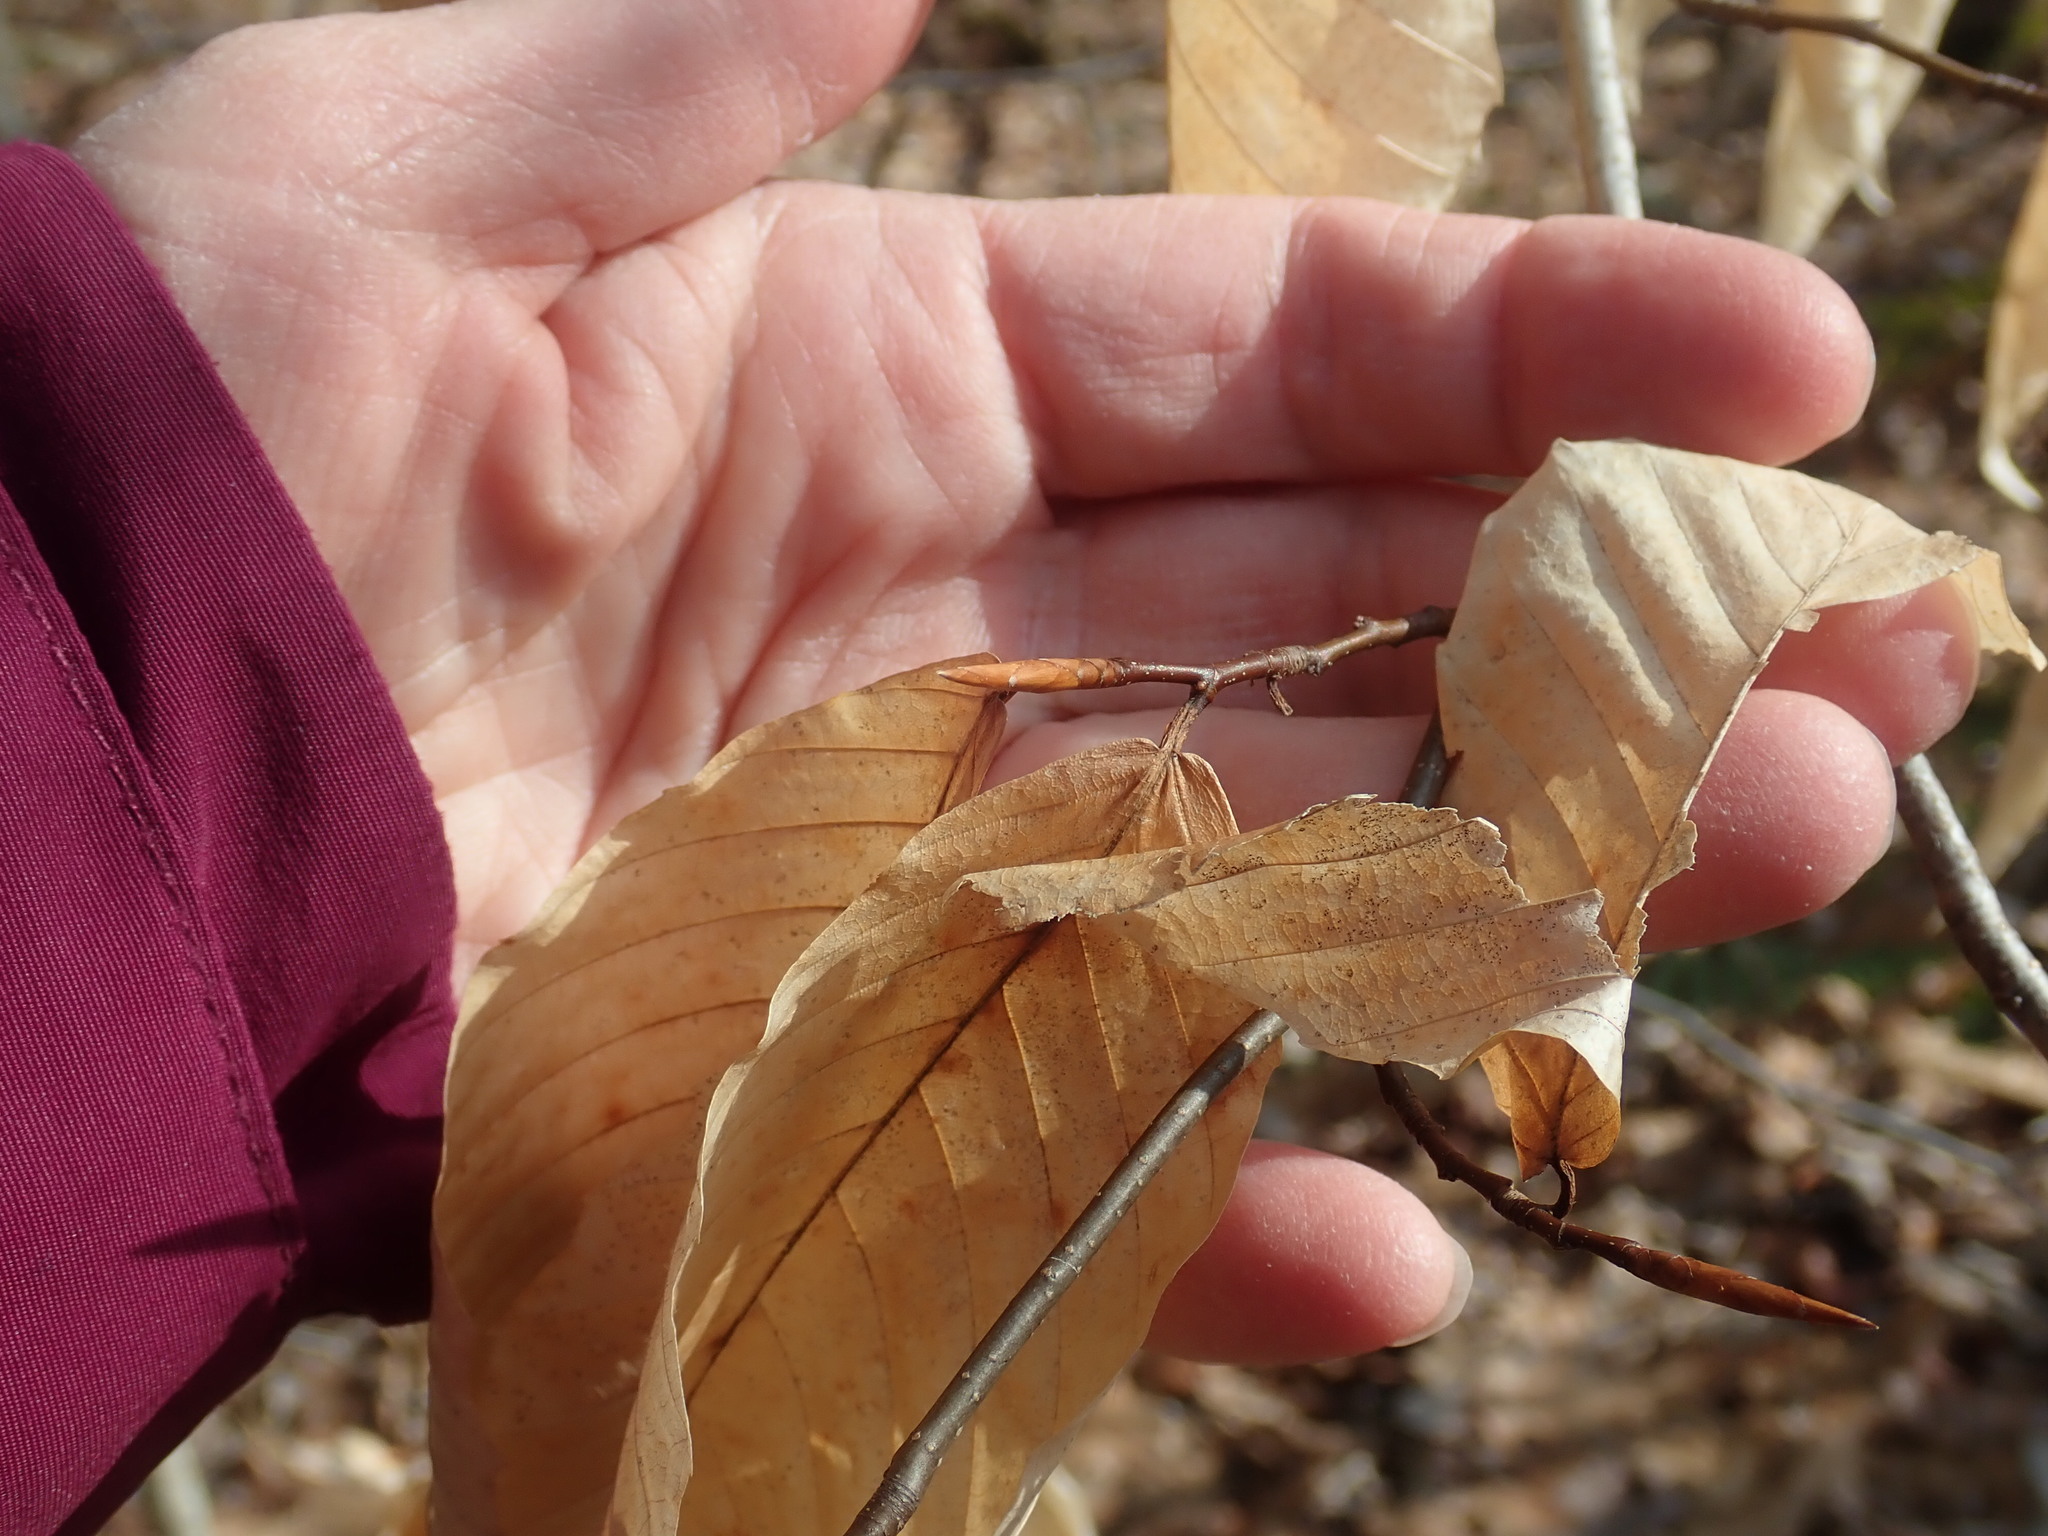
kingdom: Plantae
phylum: Tracheophyta
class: Magnoliopsida
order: Fagales
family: Fagaceae
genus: Fagus
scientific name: Fagus grandifolia
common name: American beech
